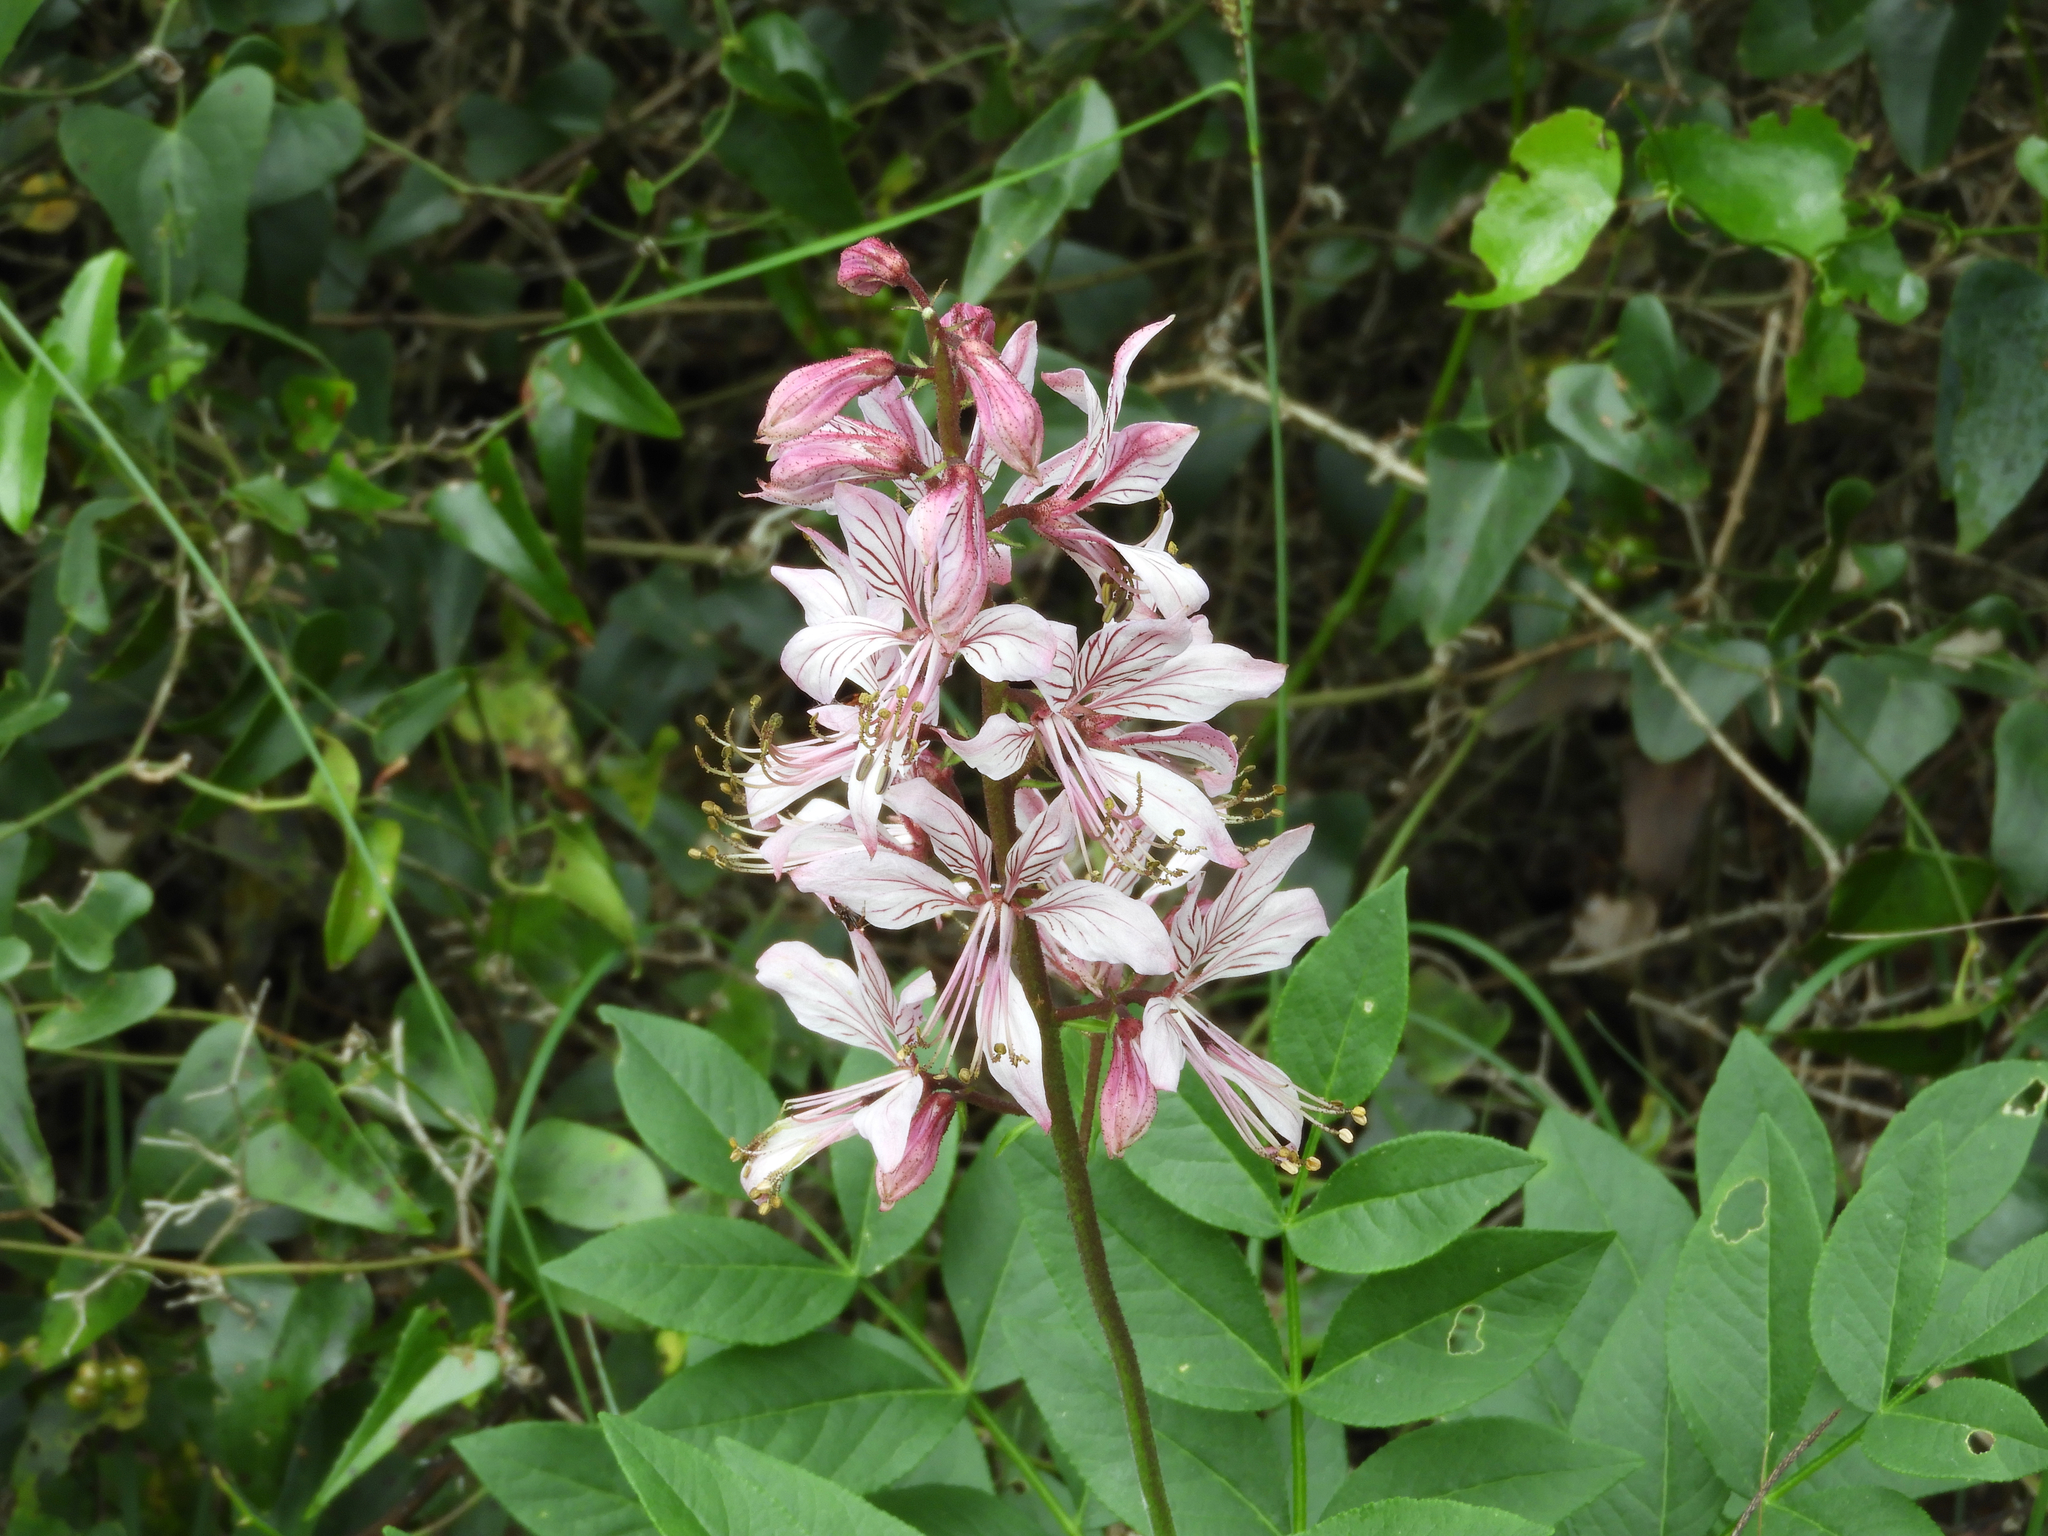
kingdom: Plantae
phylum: Tracheophyta
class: Magnoliopsida
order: Sapindales
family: Rutaceae
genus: Dictamnus
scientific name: Dictamnus albus
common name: Gasplant
